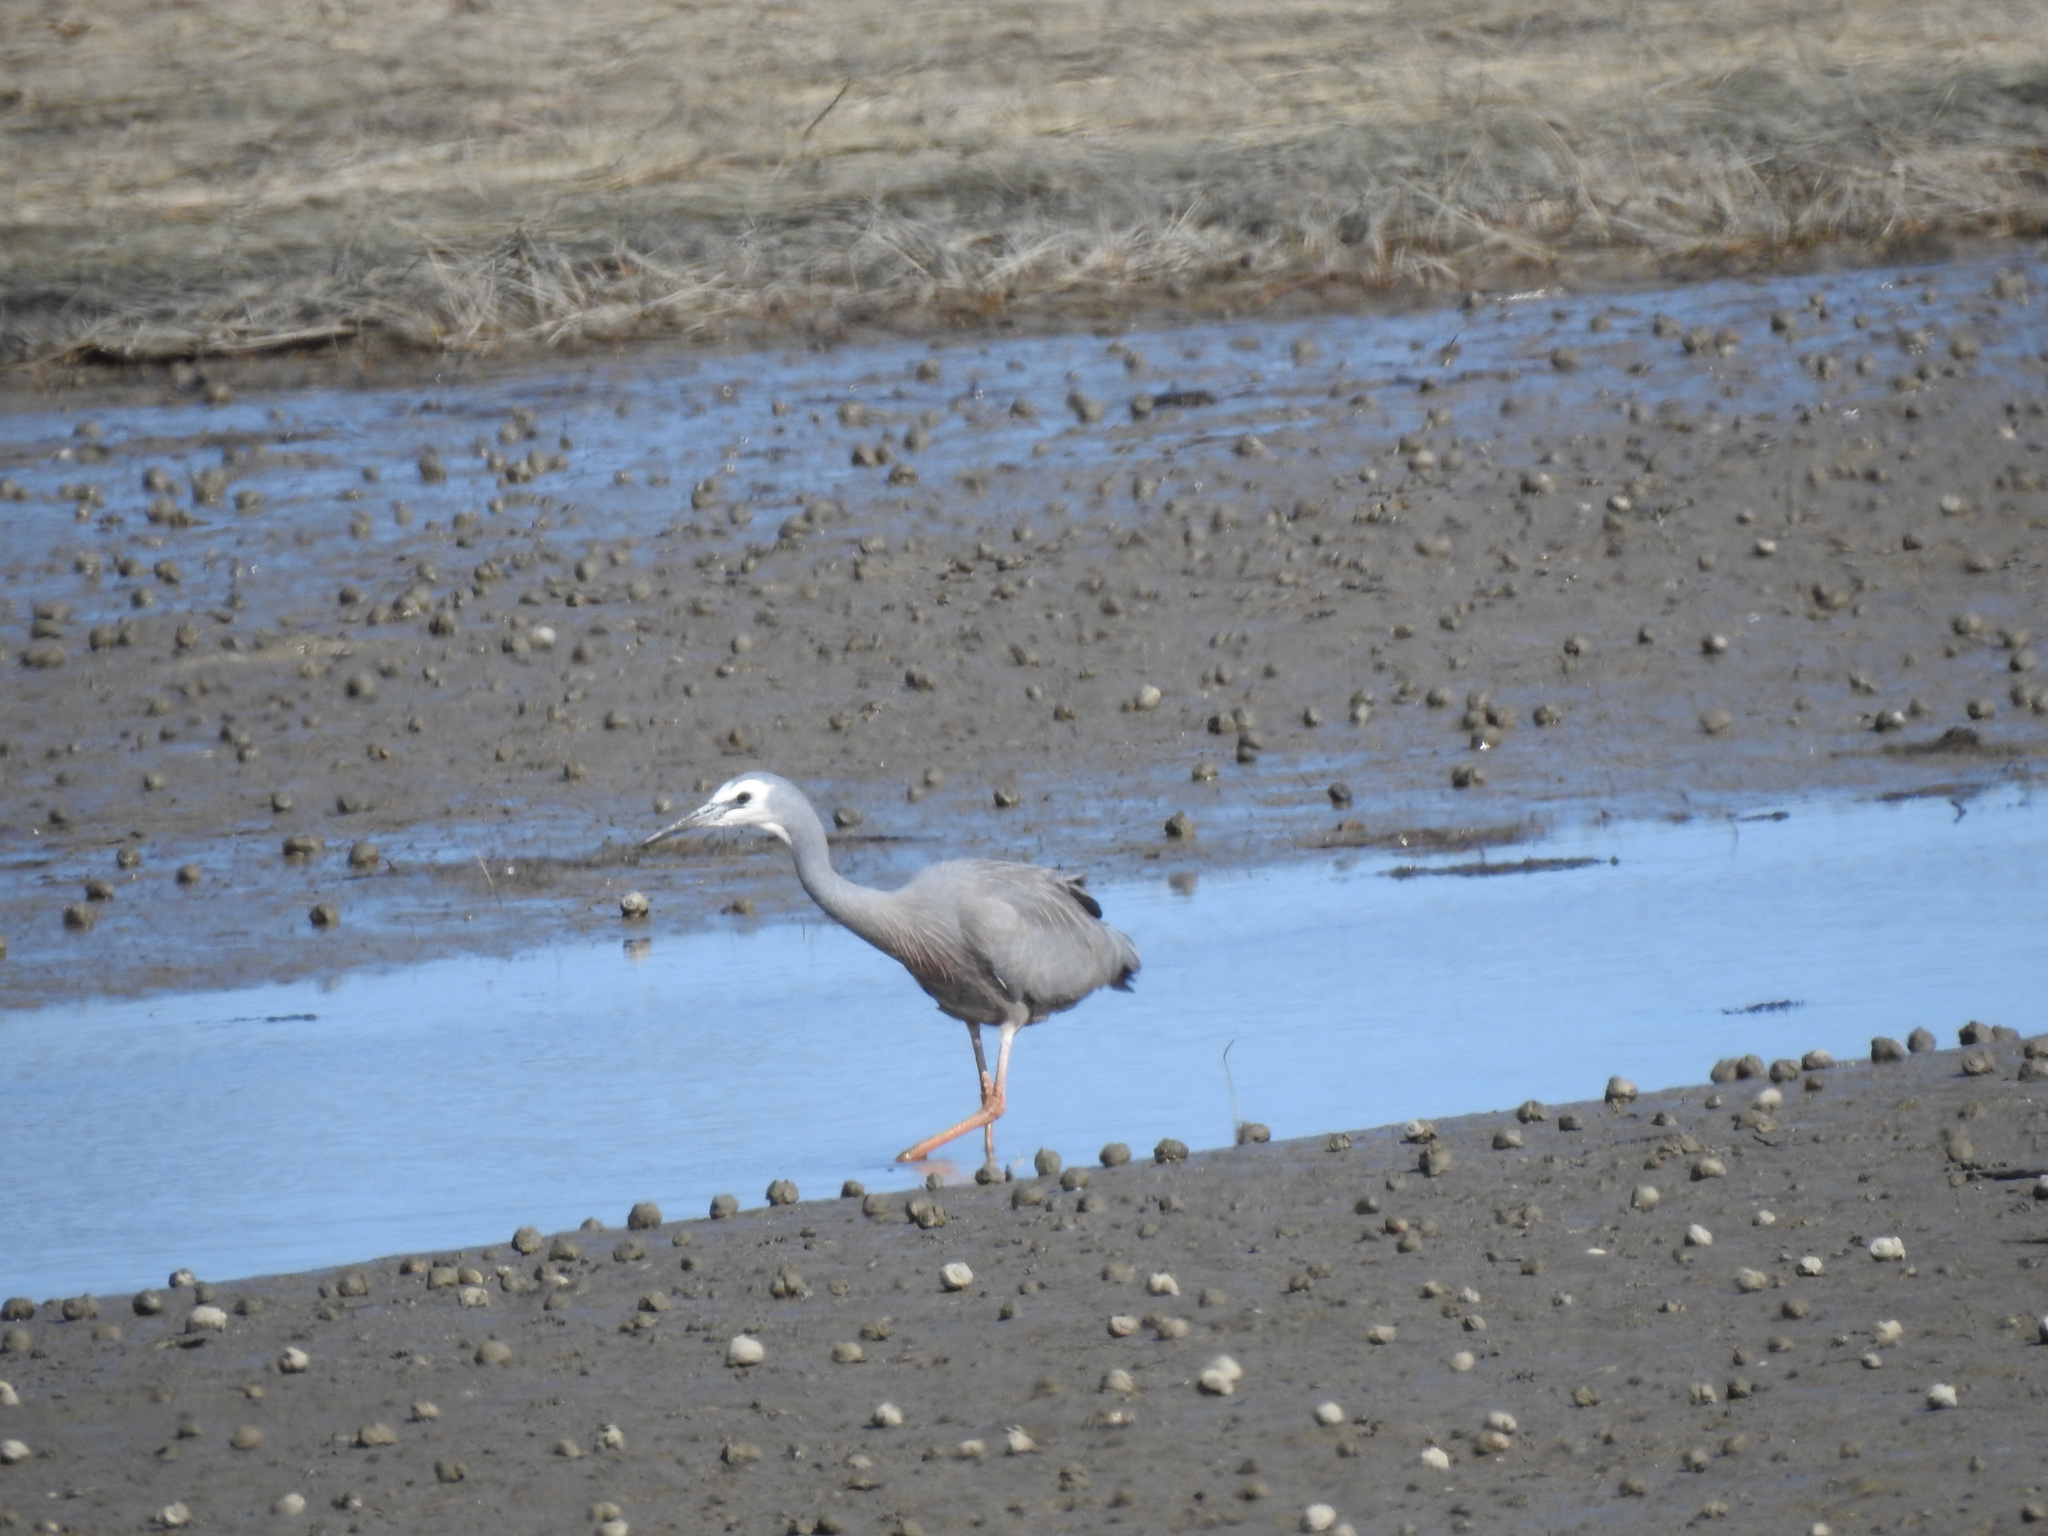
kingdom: Animalia
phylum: Chordata
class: Aves
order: Pelecaniformes
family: Ardeidae
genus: Egretta
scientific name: Egretta novaehollandiae
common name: White-faced heron
